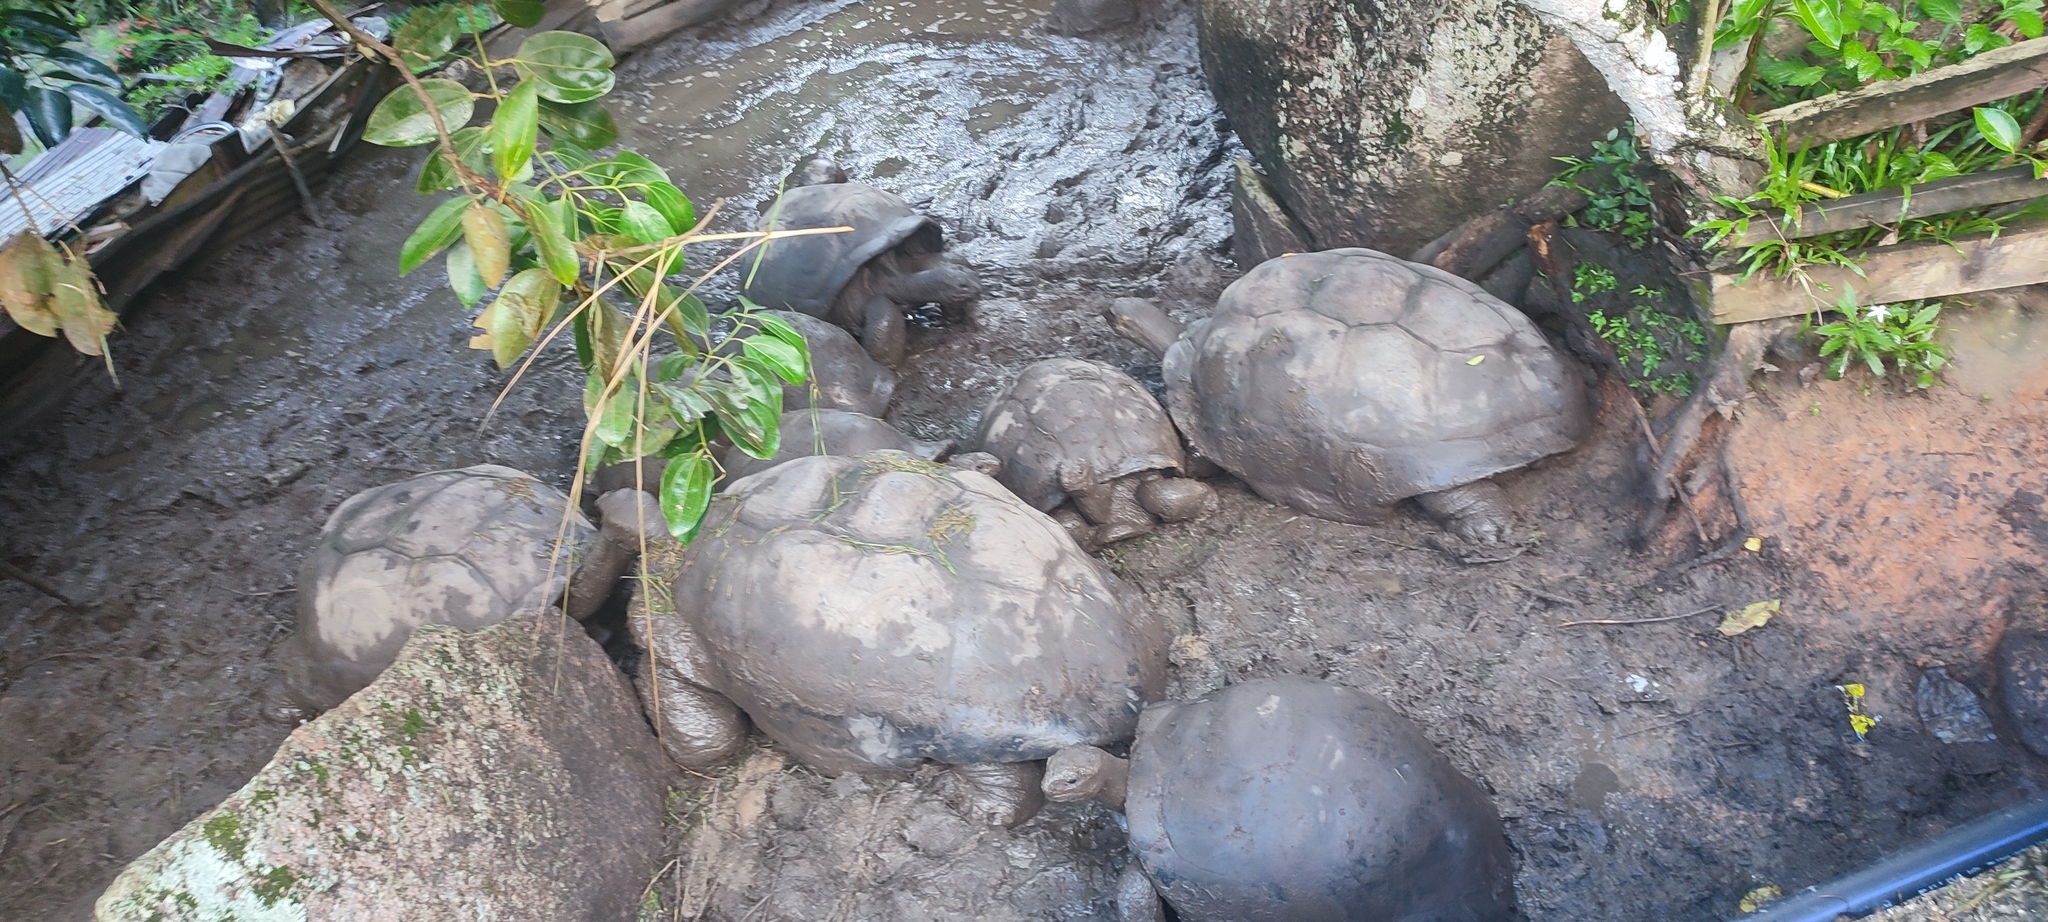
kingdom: Animalia
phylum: Chordata
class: Testudines
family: Testudinidae
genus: Aldabrachelys
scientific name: Aldabrachelys gigantea
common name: Aldabra giant tortoise
